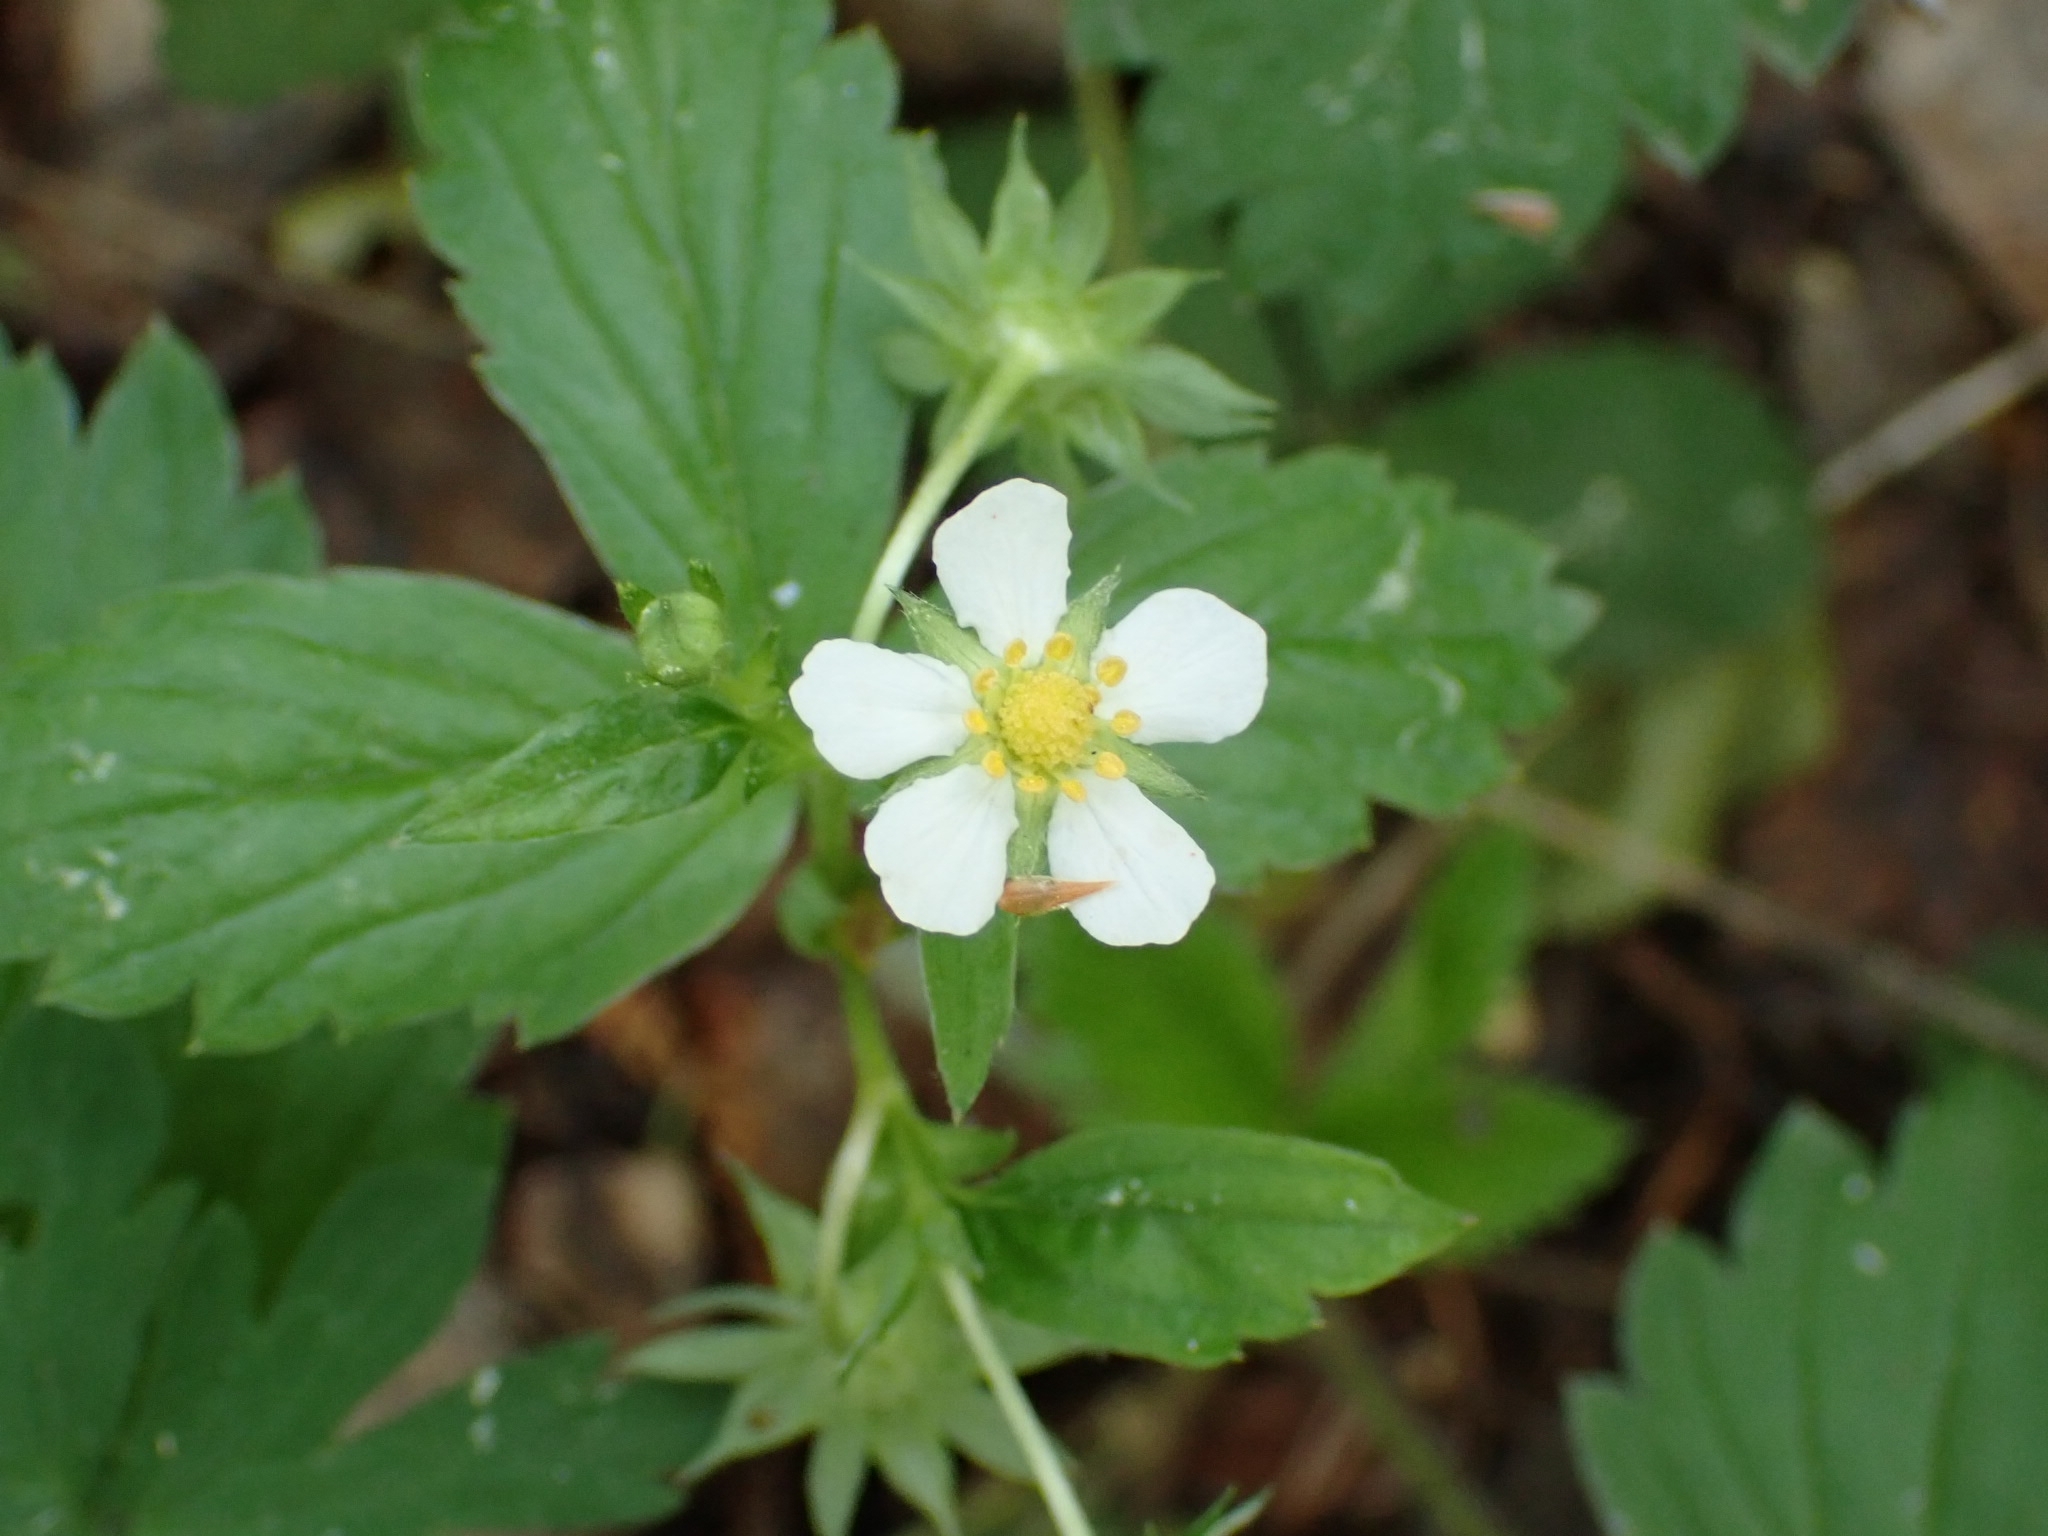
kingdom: Plantae
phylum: Tracheophyta
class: Magnoliopsida
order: Rosales
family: Rosaceae
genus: Fragaria
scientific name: Fragaria vesca
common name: Wild strawberry
